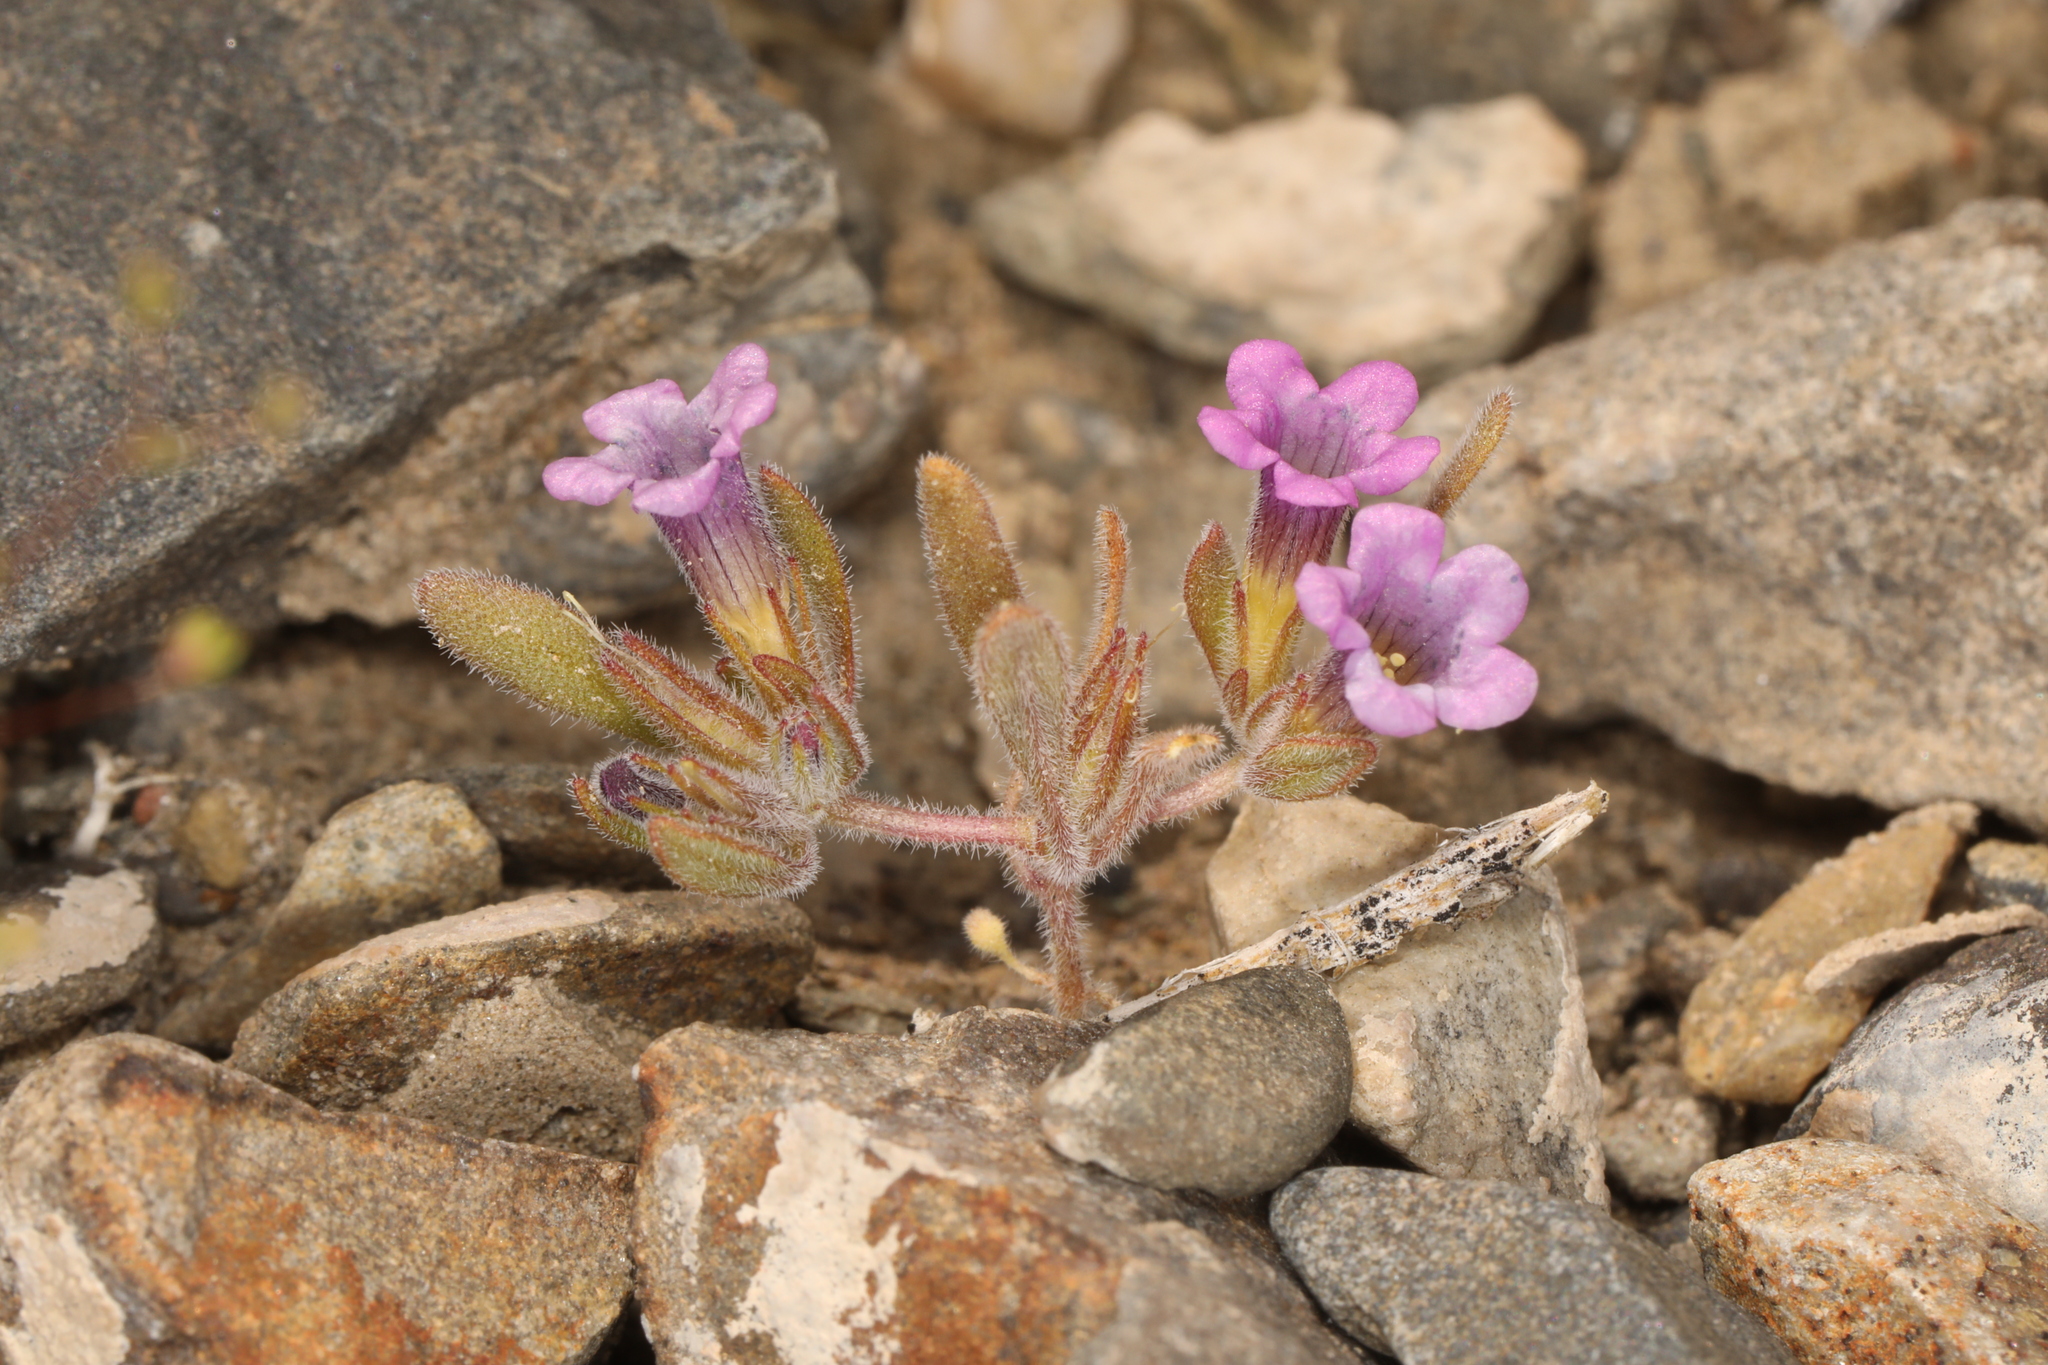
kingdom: Plantae
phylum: Tracheophyta
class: Magnoliopsida
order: Boraginales
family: Namaceae
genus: Nama
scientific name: Nama demissa
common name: Leafy nama
